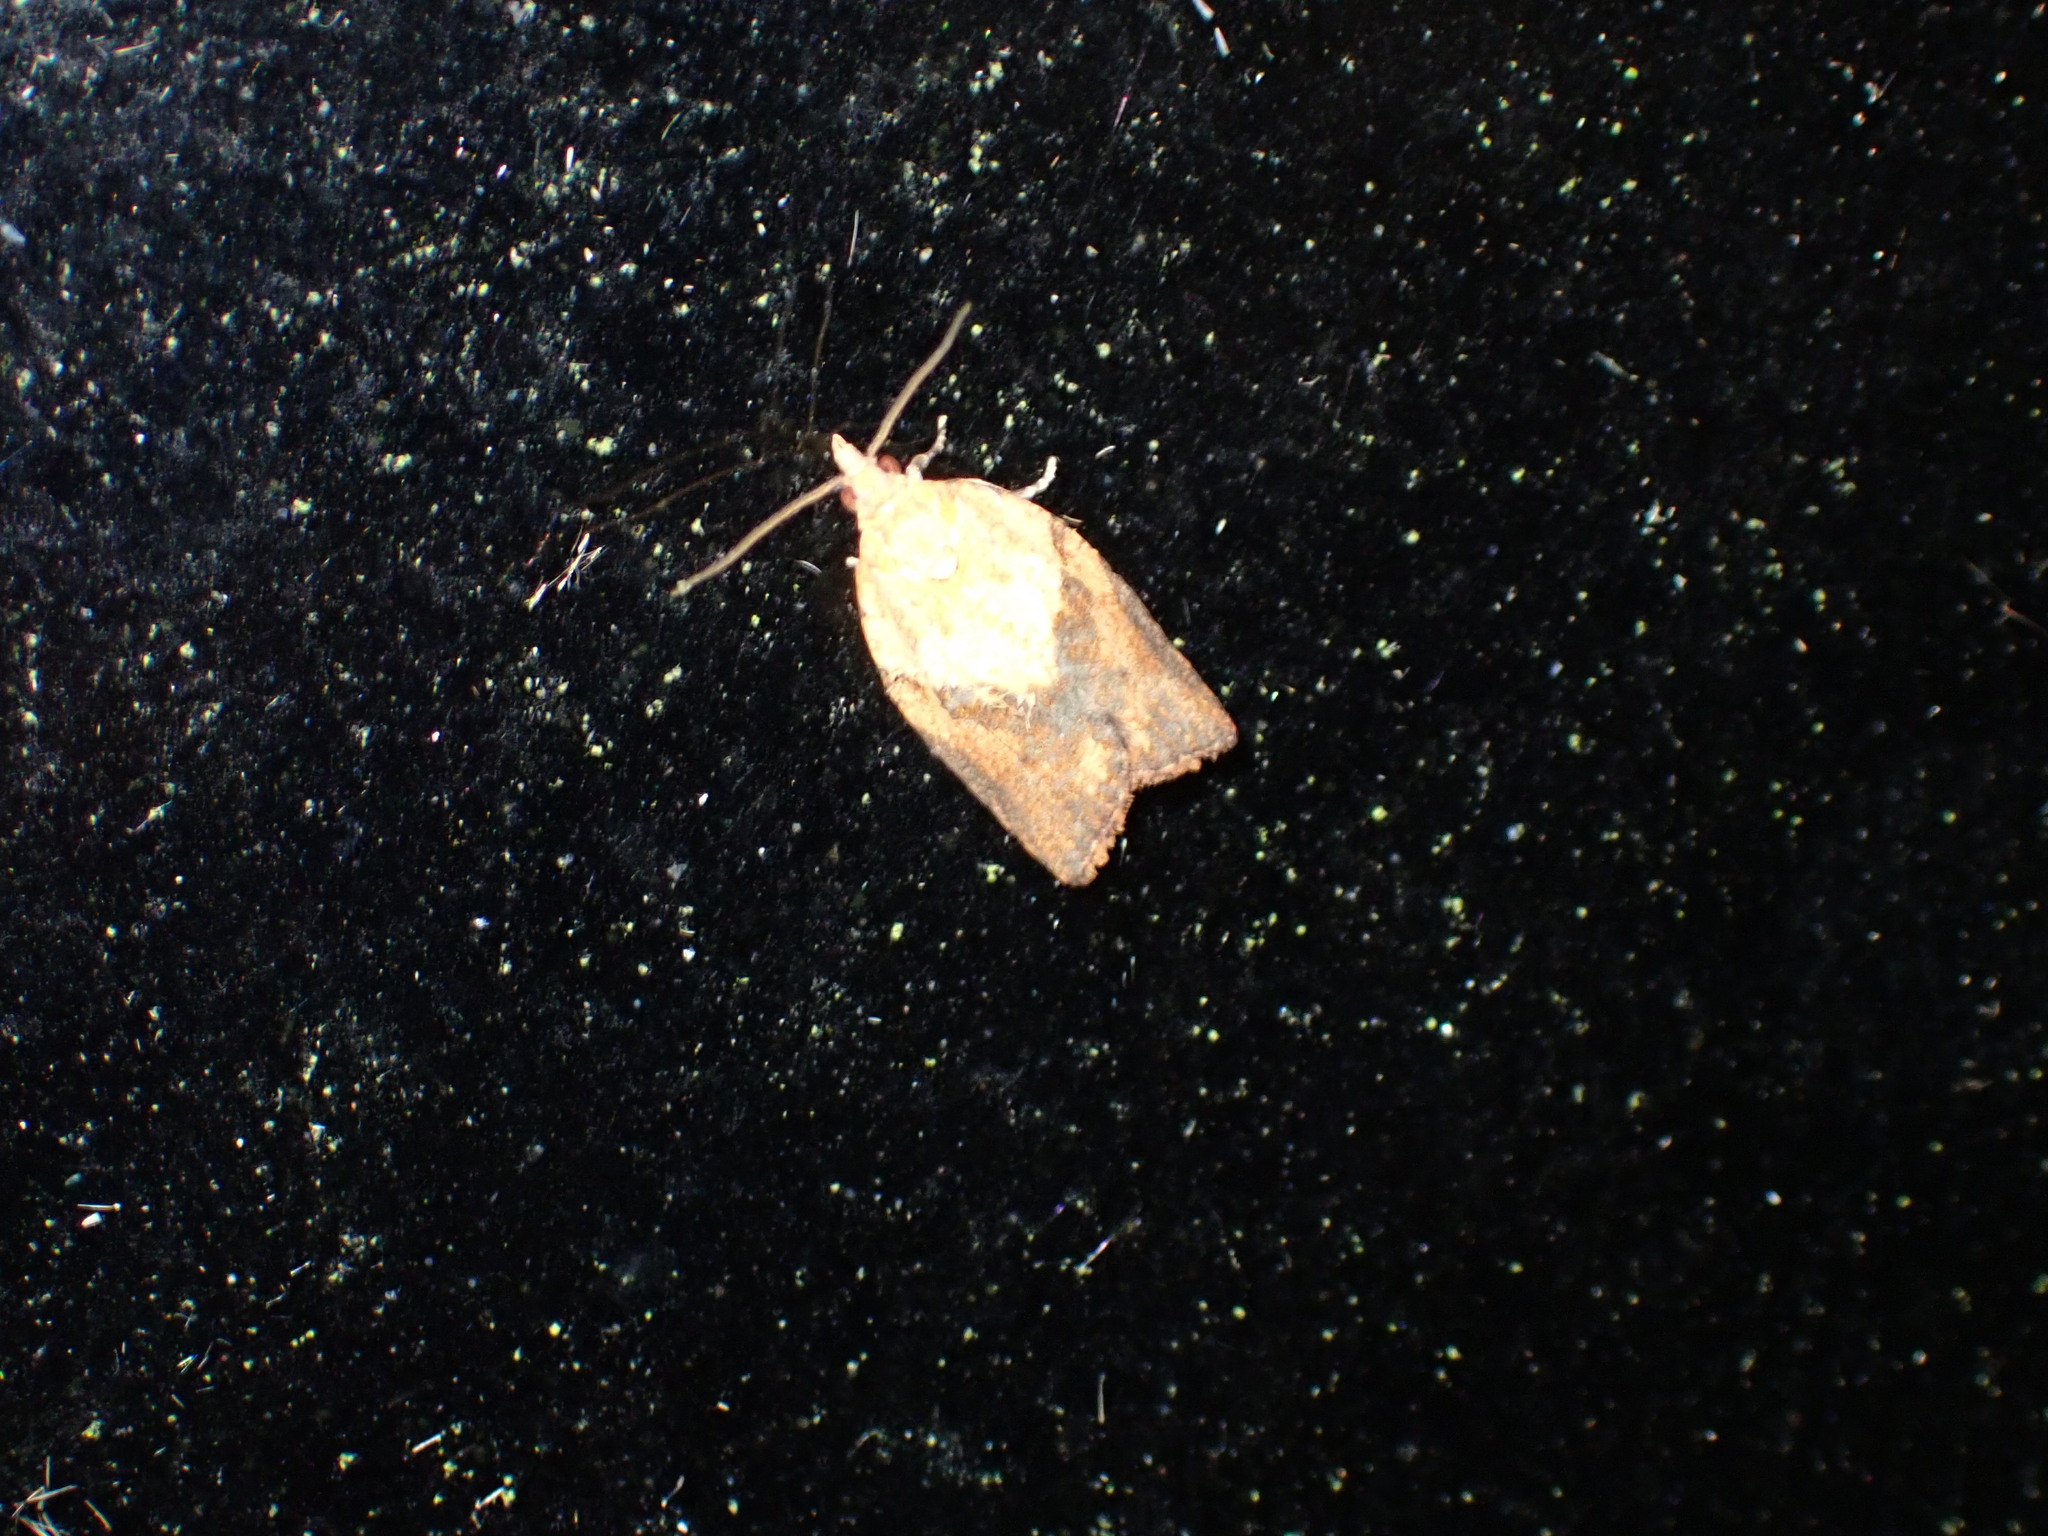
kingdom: Animalia
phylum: Arthropoda
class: Insecta
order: Lepidoptera
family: Tortricidae
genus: Epiphyas
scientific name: Epiphyas postvittana
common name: Light brown apple moth
